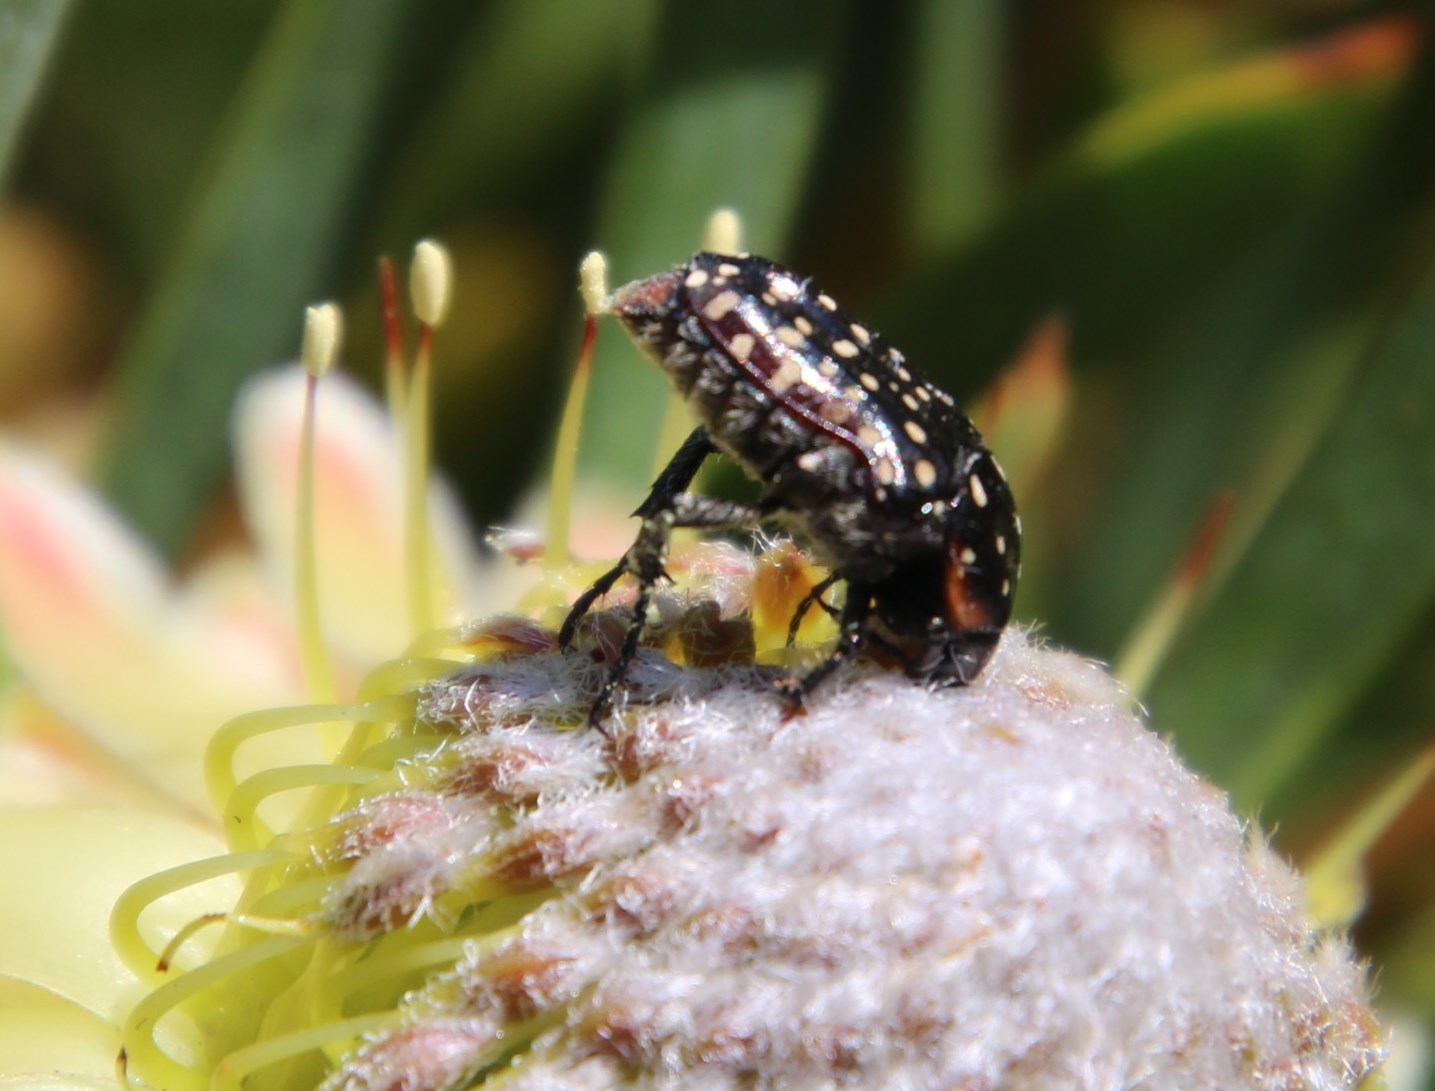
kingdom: Animalia
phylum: Arthropoda
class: Insecta
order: Coleoptera
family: Scarabaeidae
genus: Oxythyrea
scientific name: Oxythyrea
